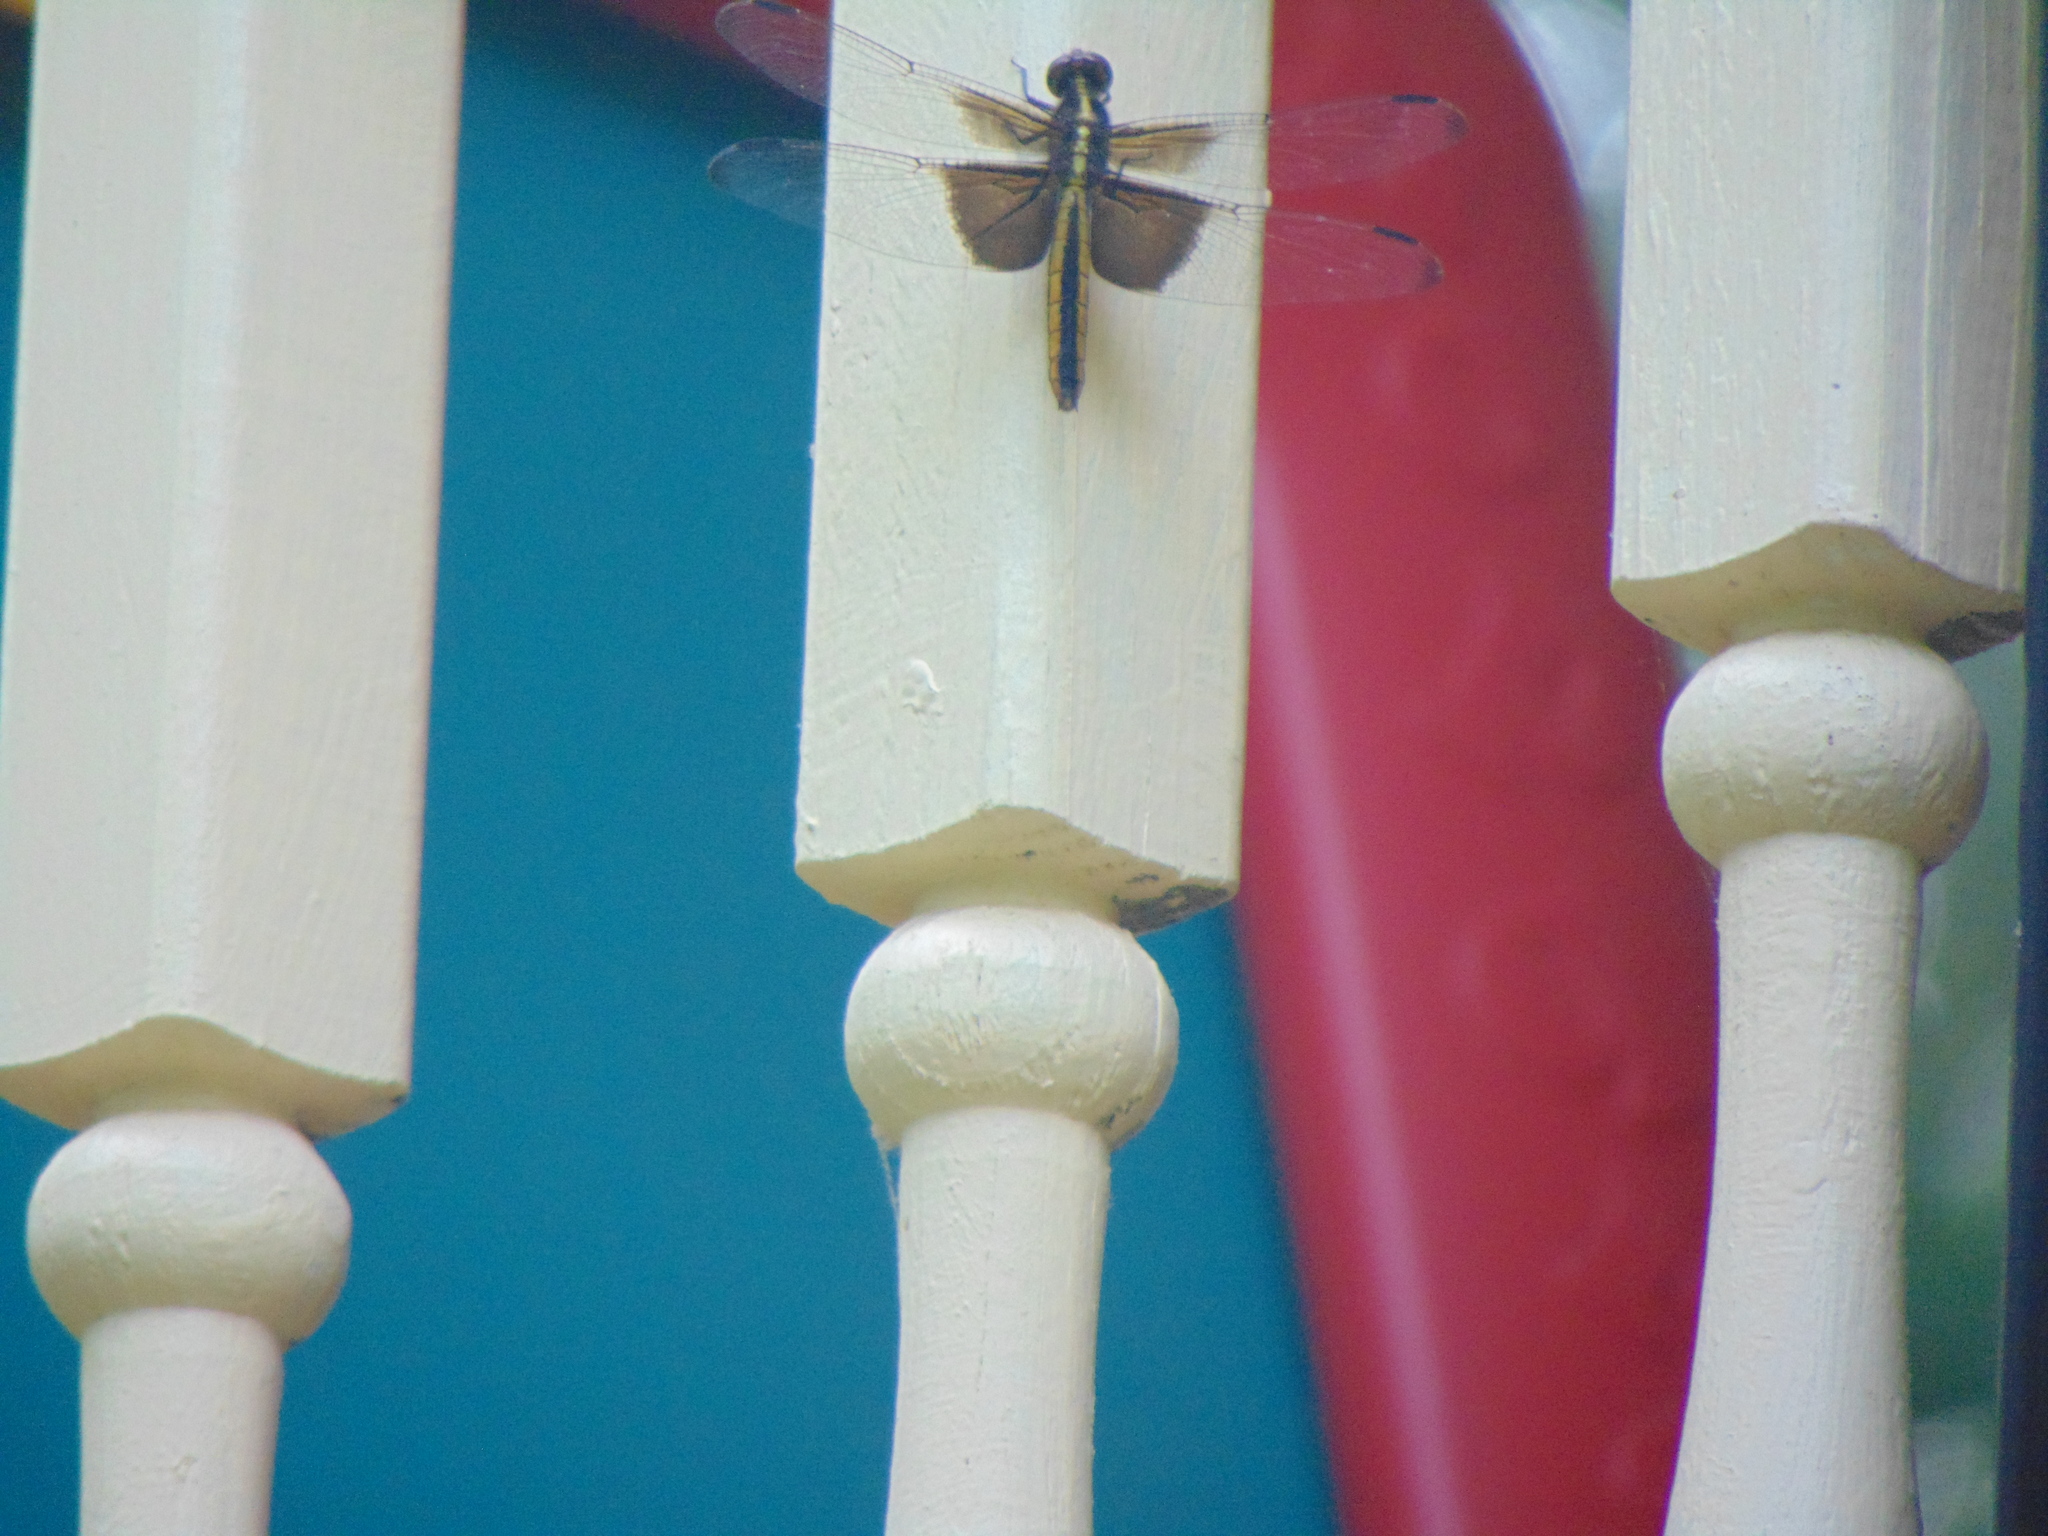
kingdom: Animalia
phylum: Arthropoda
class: Insecta
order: Odonata
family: Libellulidae
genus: Libellula
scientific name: Libellula luctuosa
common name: Widow skimmer
